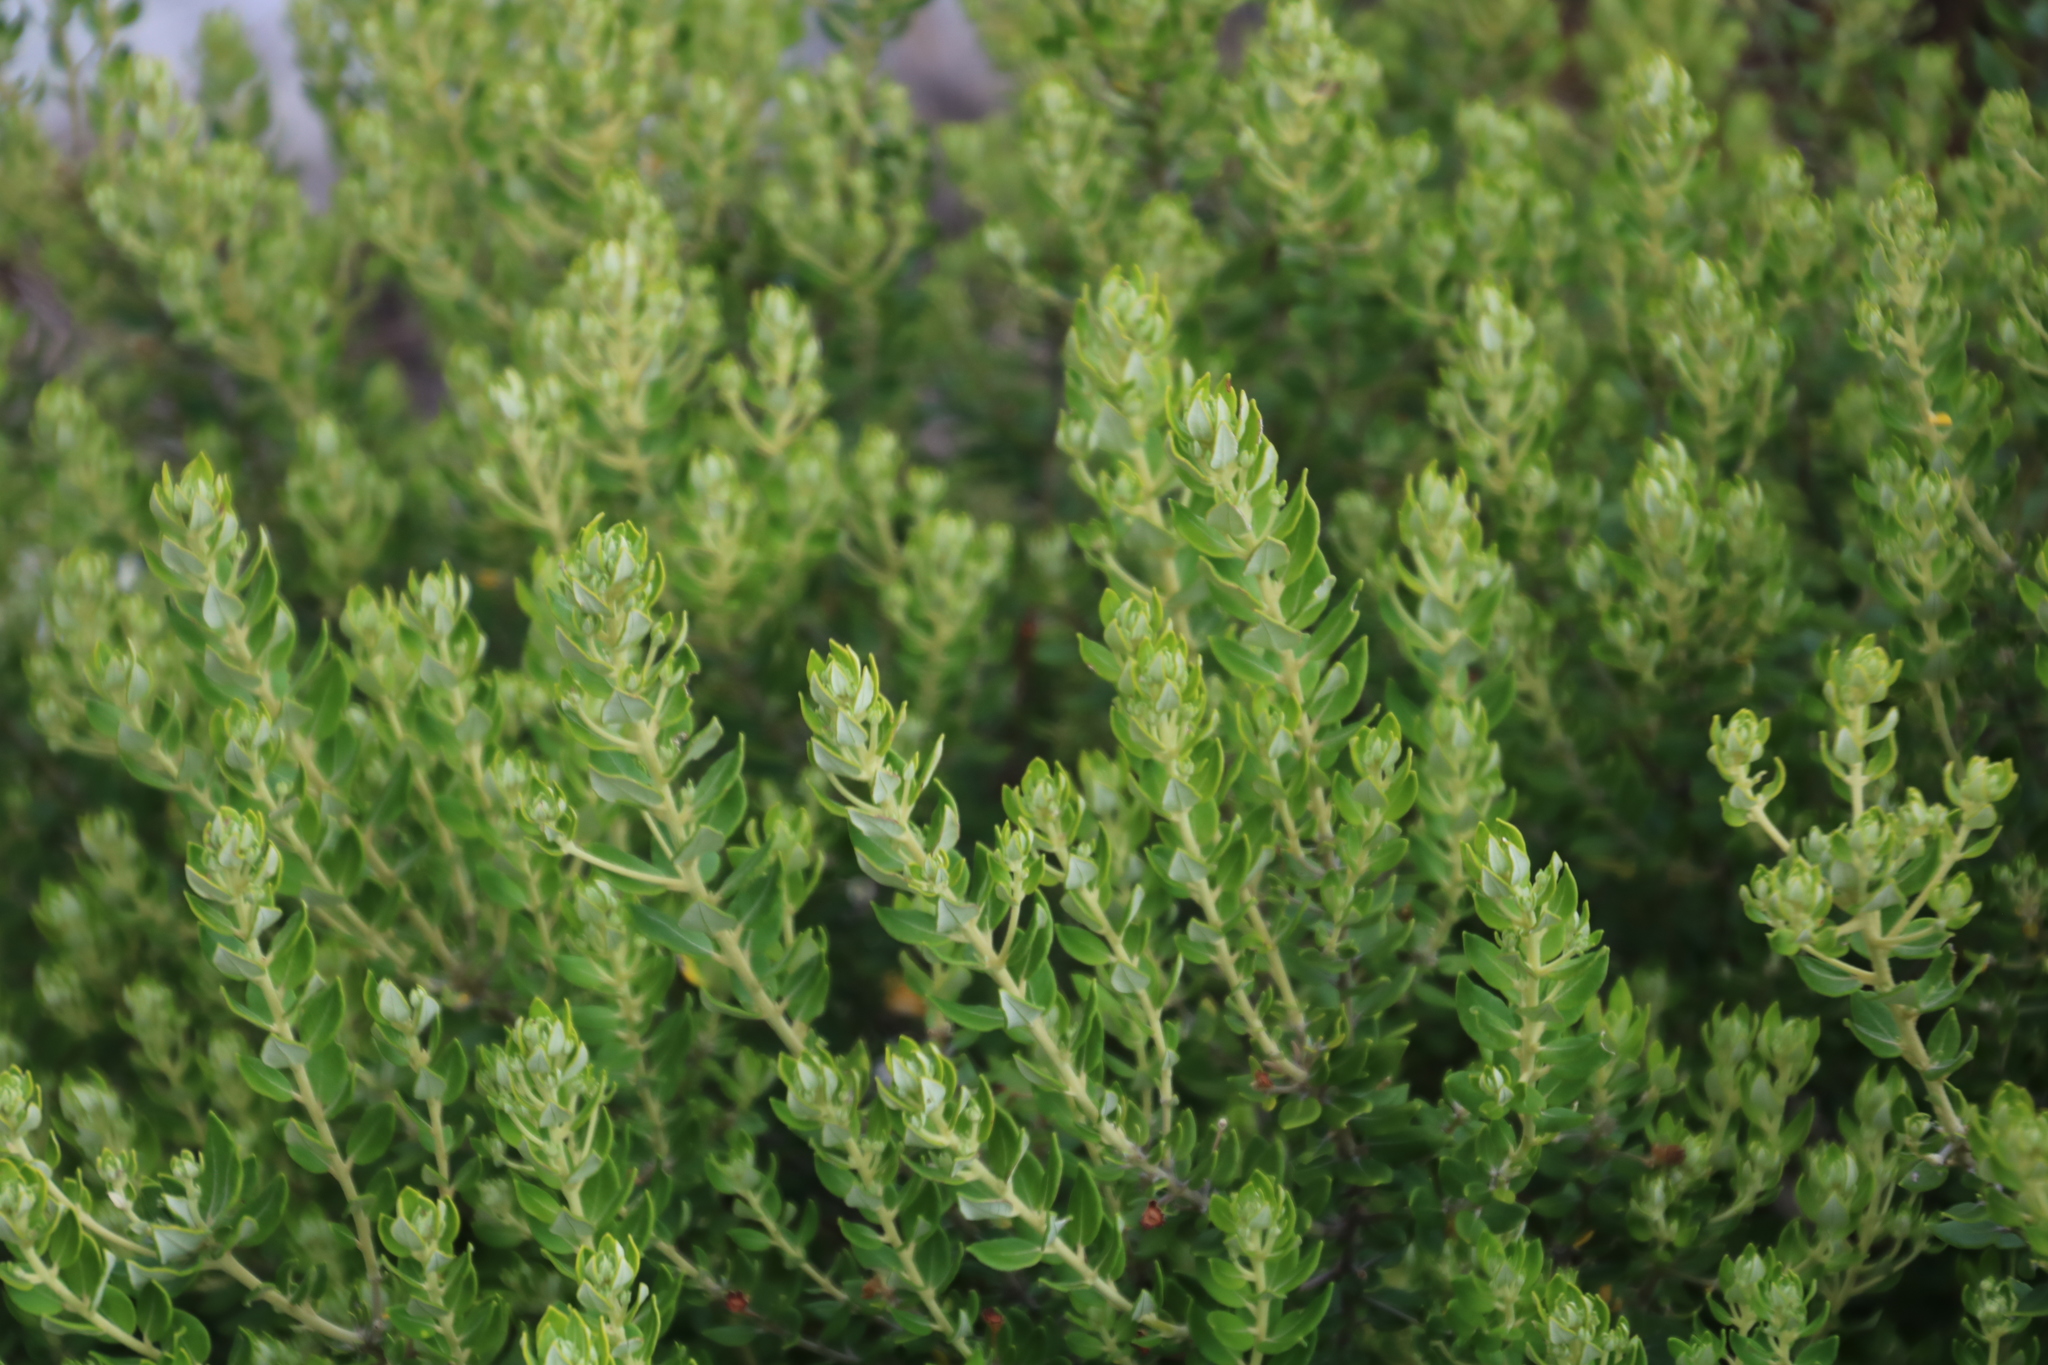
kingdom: Plantae
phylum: Tracheophyta
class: Magnoliopsida
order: Rosales
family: Rhamnaceae
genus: Phylica
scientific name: Phylica buxifolia
